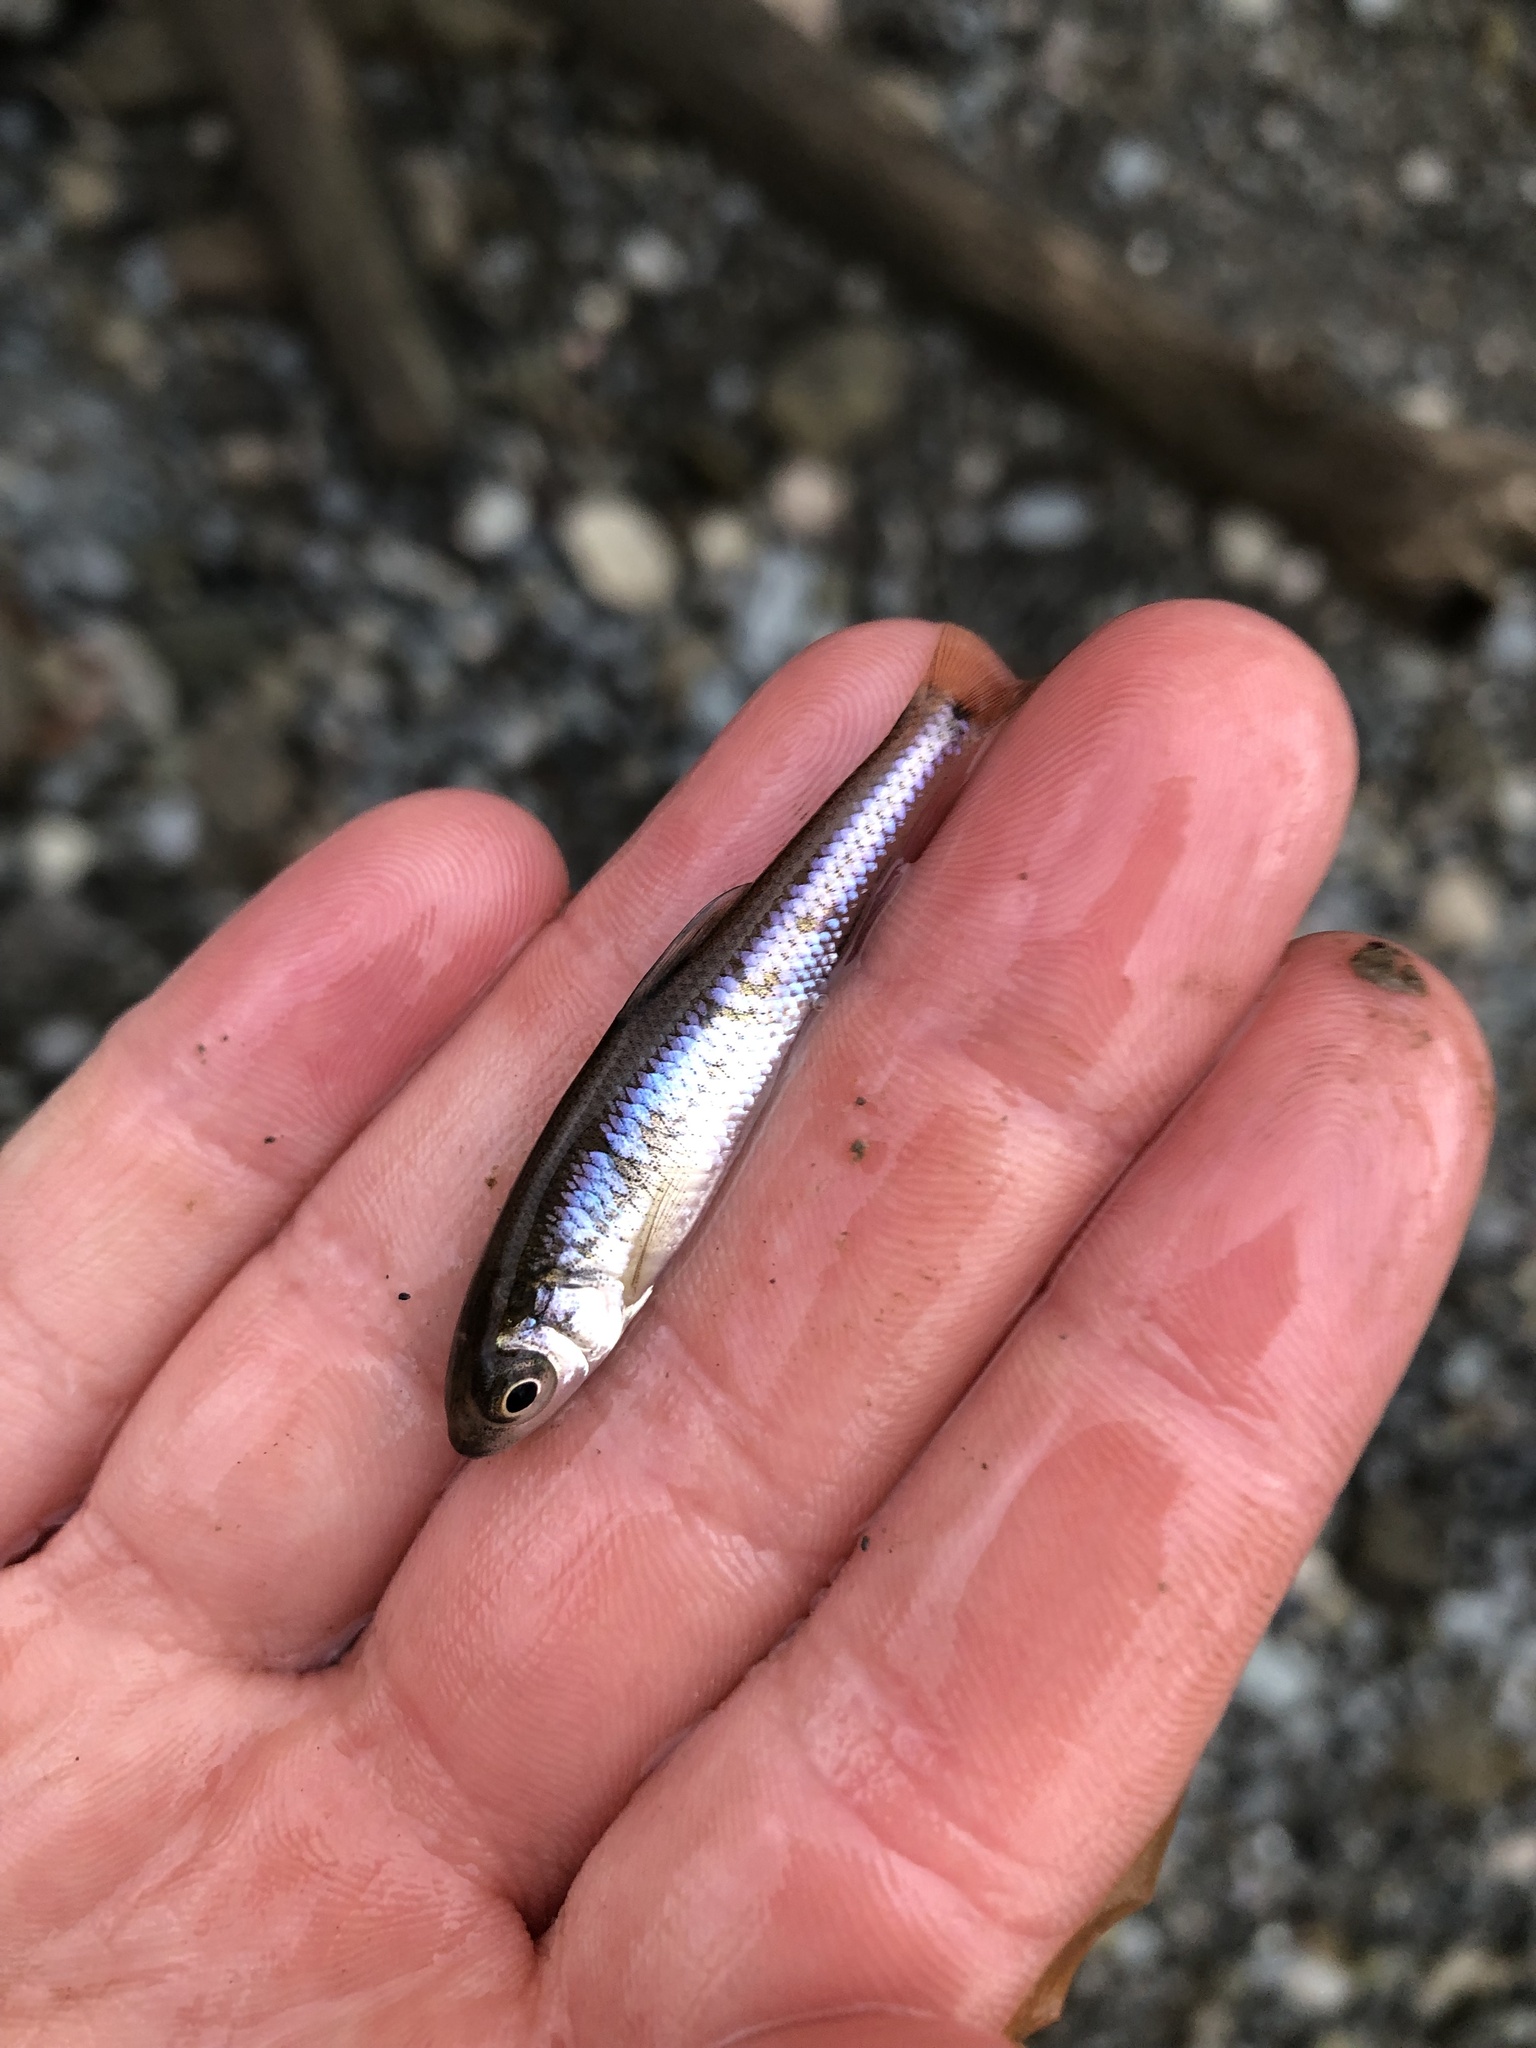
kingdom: Animalia
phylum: Chordata
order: Cypriniformes
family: Cyprinidae
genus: Luxilus
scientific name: Luxilus cornutus
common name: Common shiner
